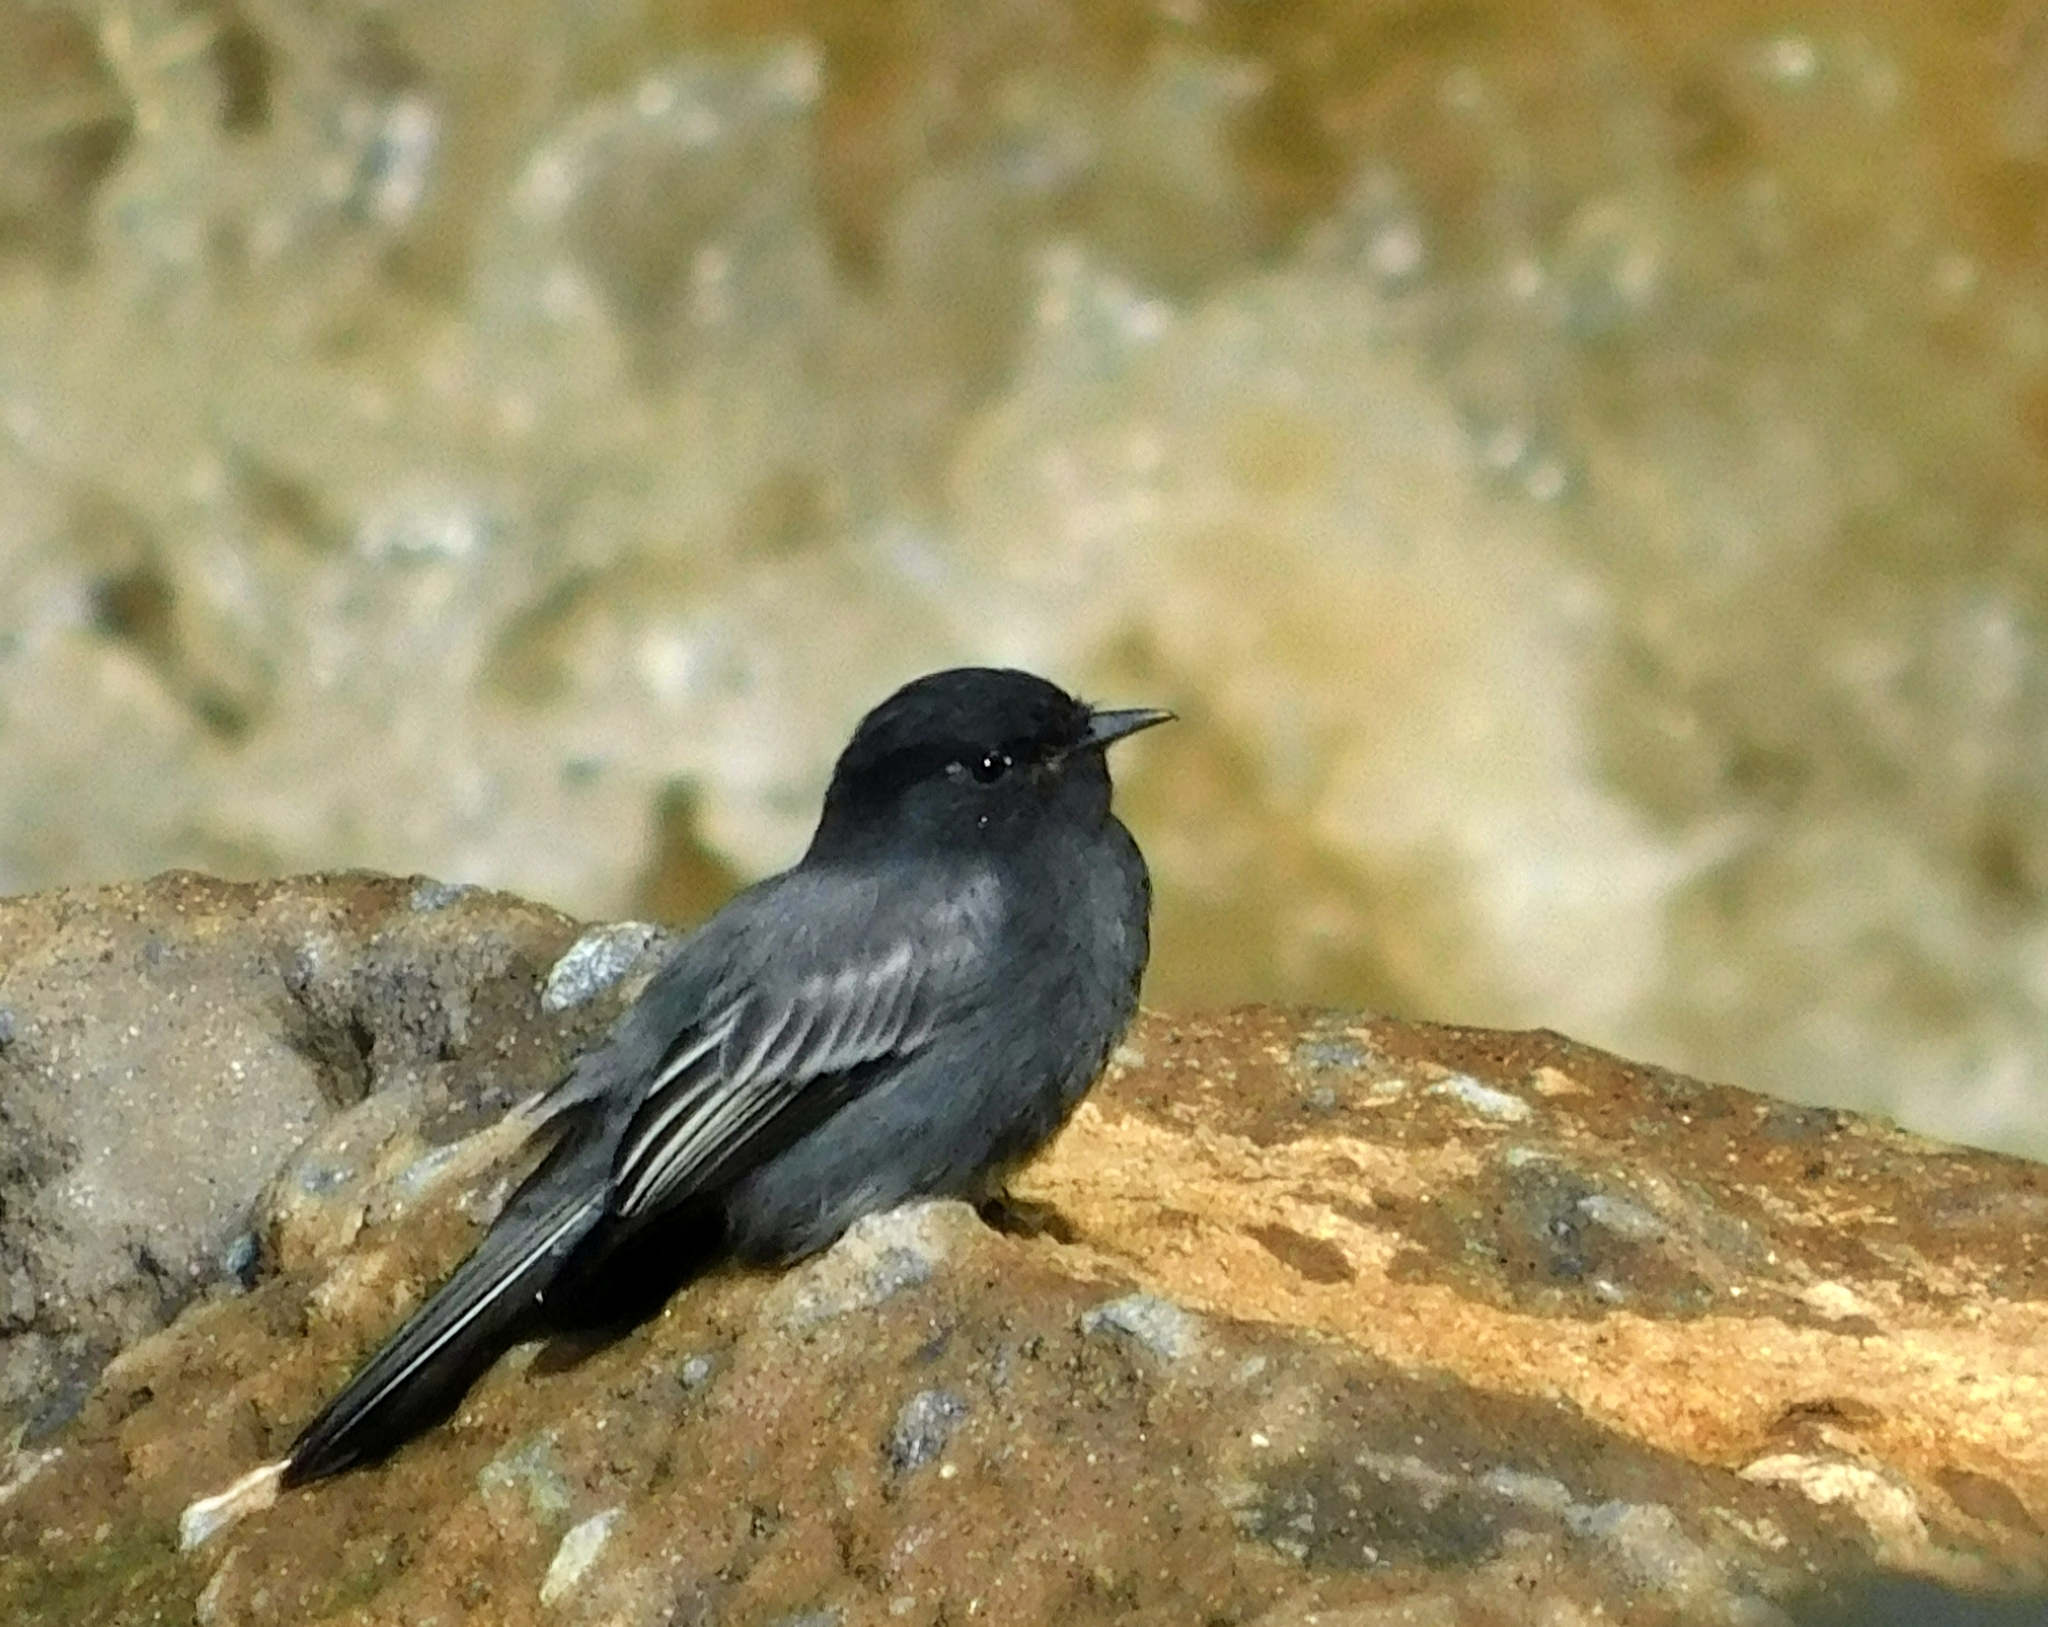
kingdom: Animalia
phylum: Chordata
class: Aves
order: Passeriformes
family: Tyrannidae
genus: Sayornis
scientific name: Sayornis nigricans
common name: Black phoebe
